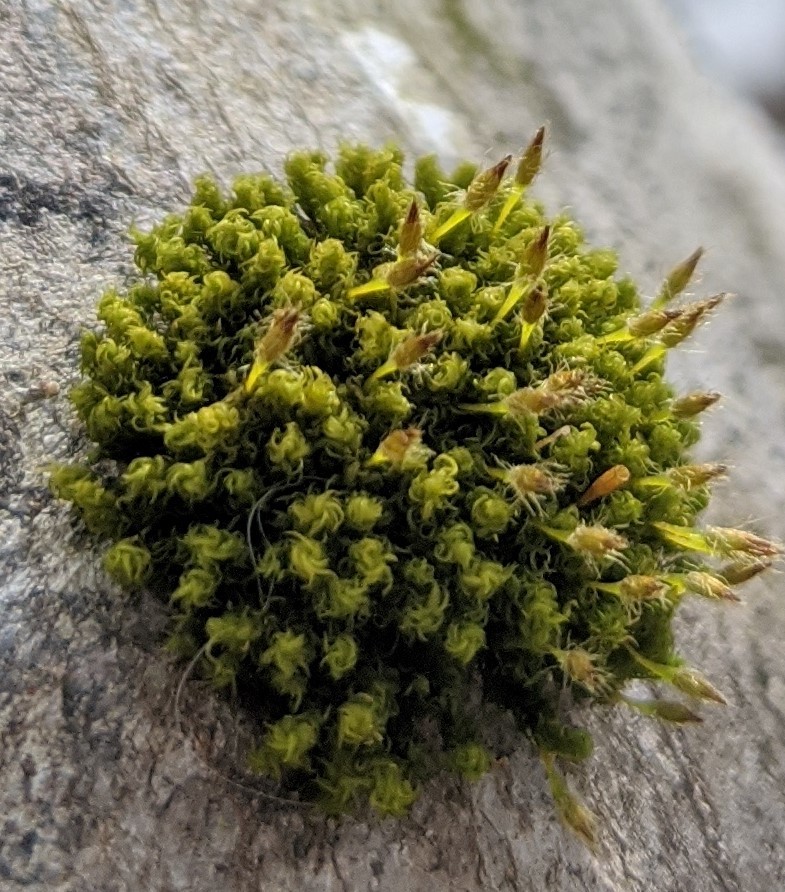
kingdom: Plantae
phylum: Bryophyta
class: Bryopsida
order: Orthotrichales
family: Orthotrichaceae
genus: Ulota
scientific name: Ulota crispa
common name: Crisped pincushion moss
